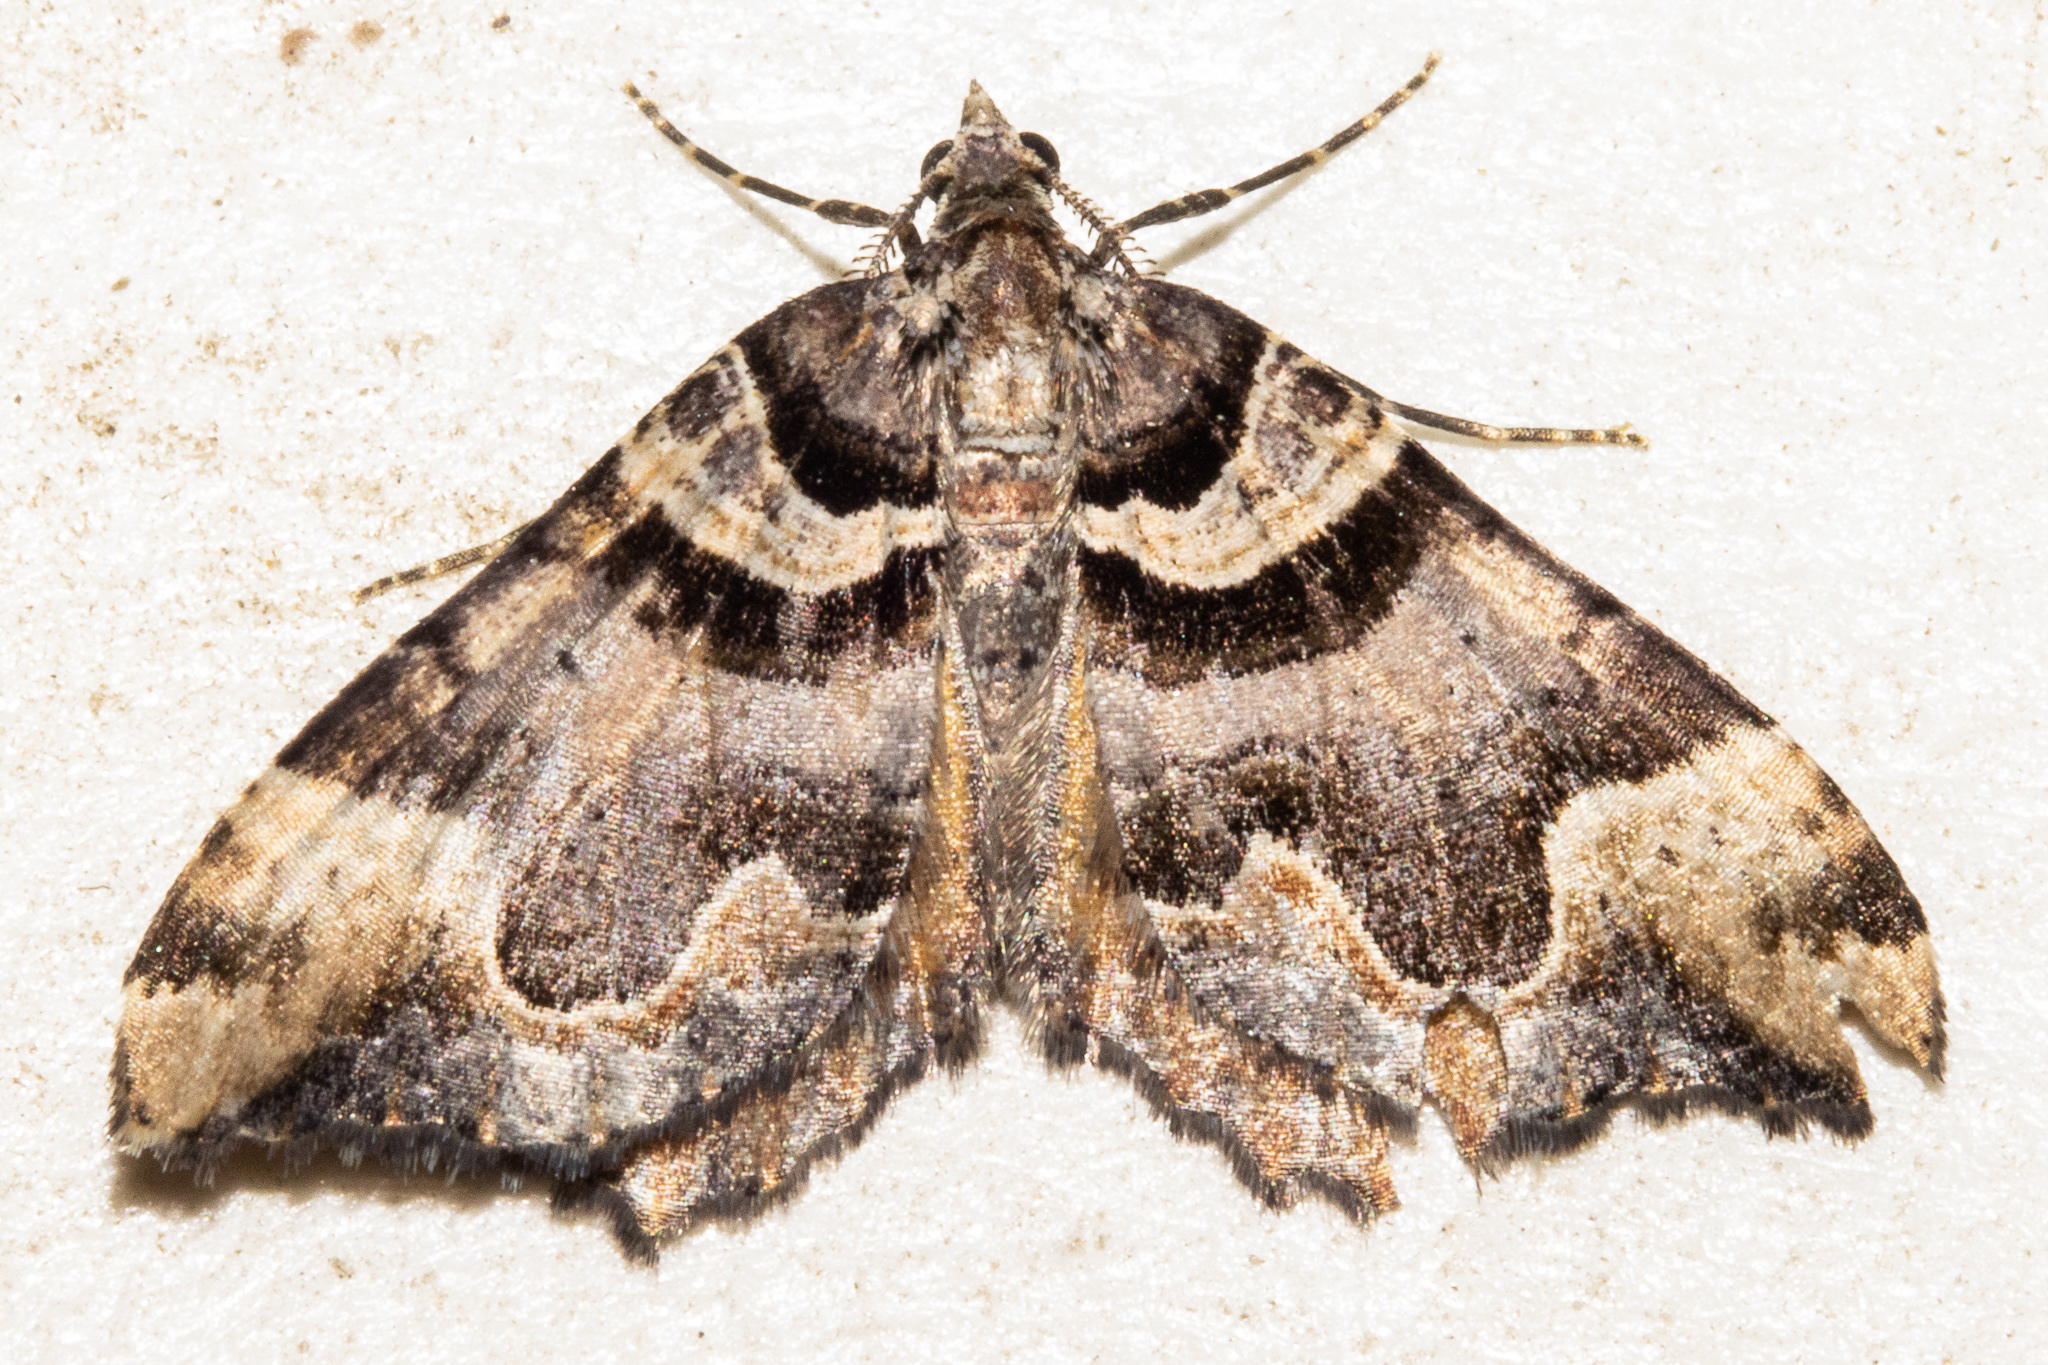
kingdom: Animalia
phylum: Arthropoda
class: Insecta
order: Lepidoptera
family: Geometridae
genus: Asaphodes
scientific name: Asaphodes chlamydota
